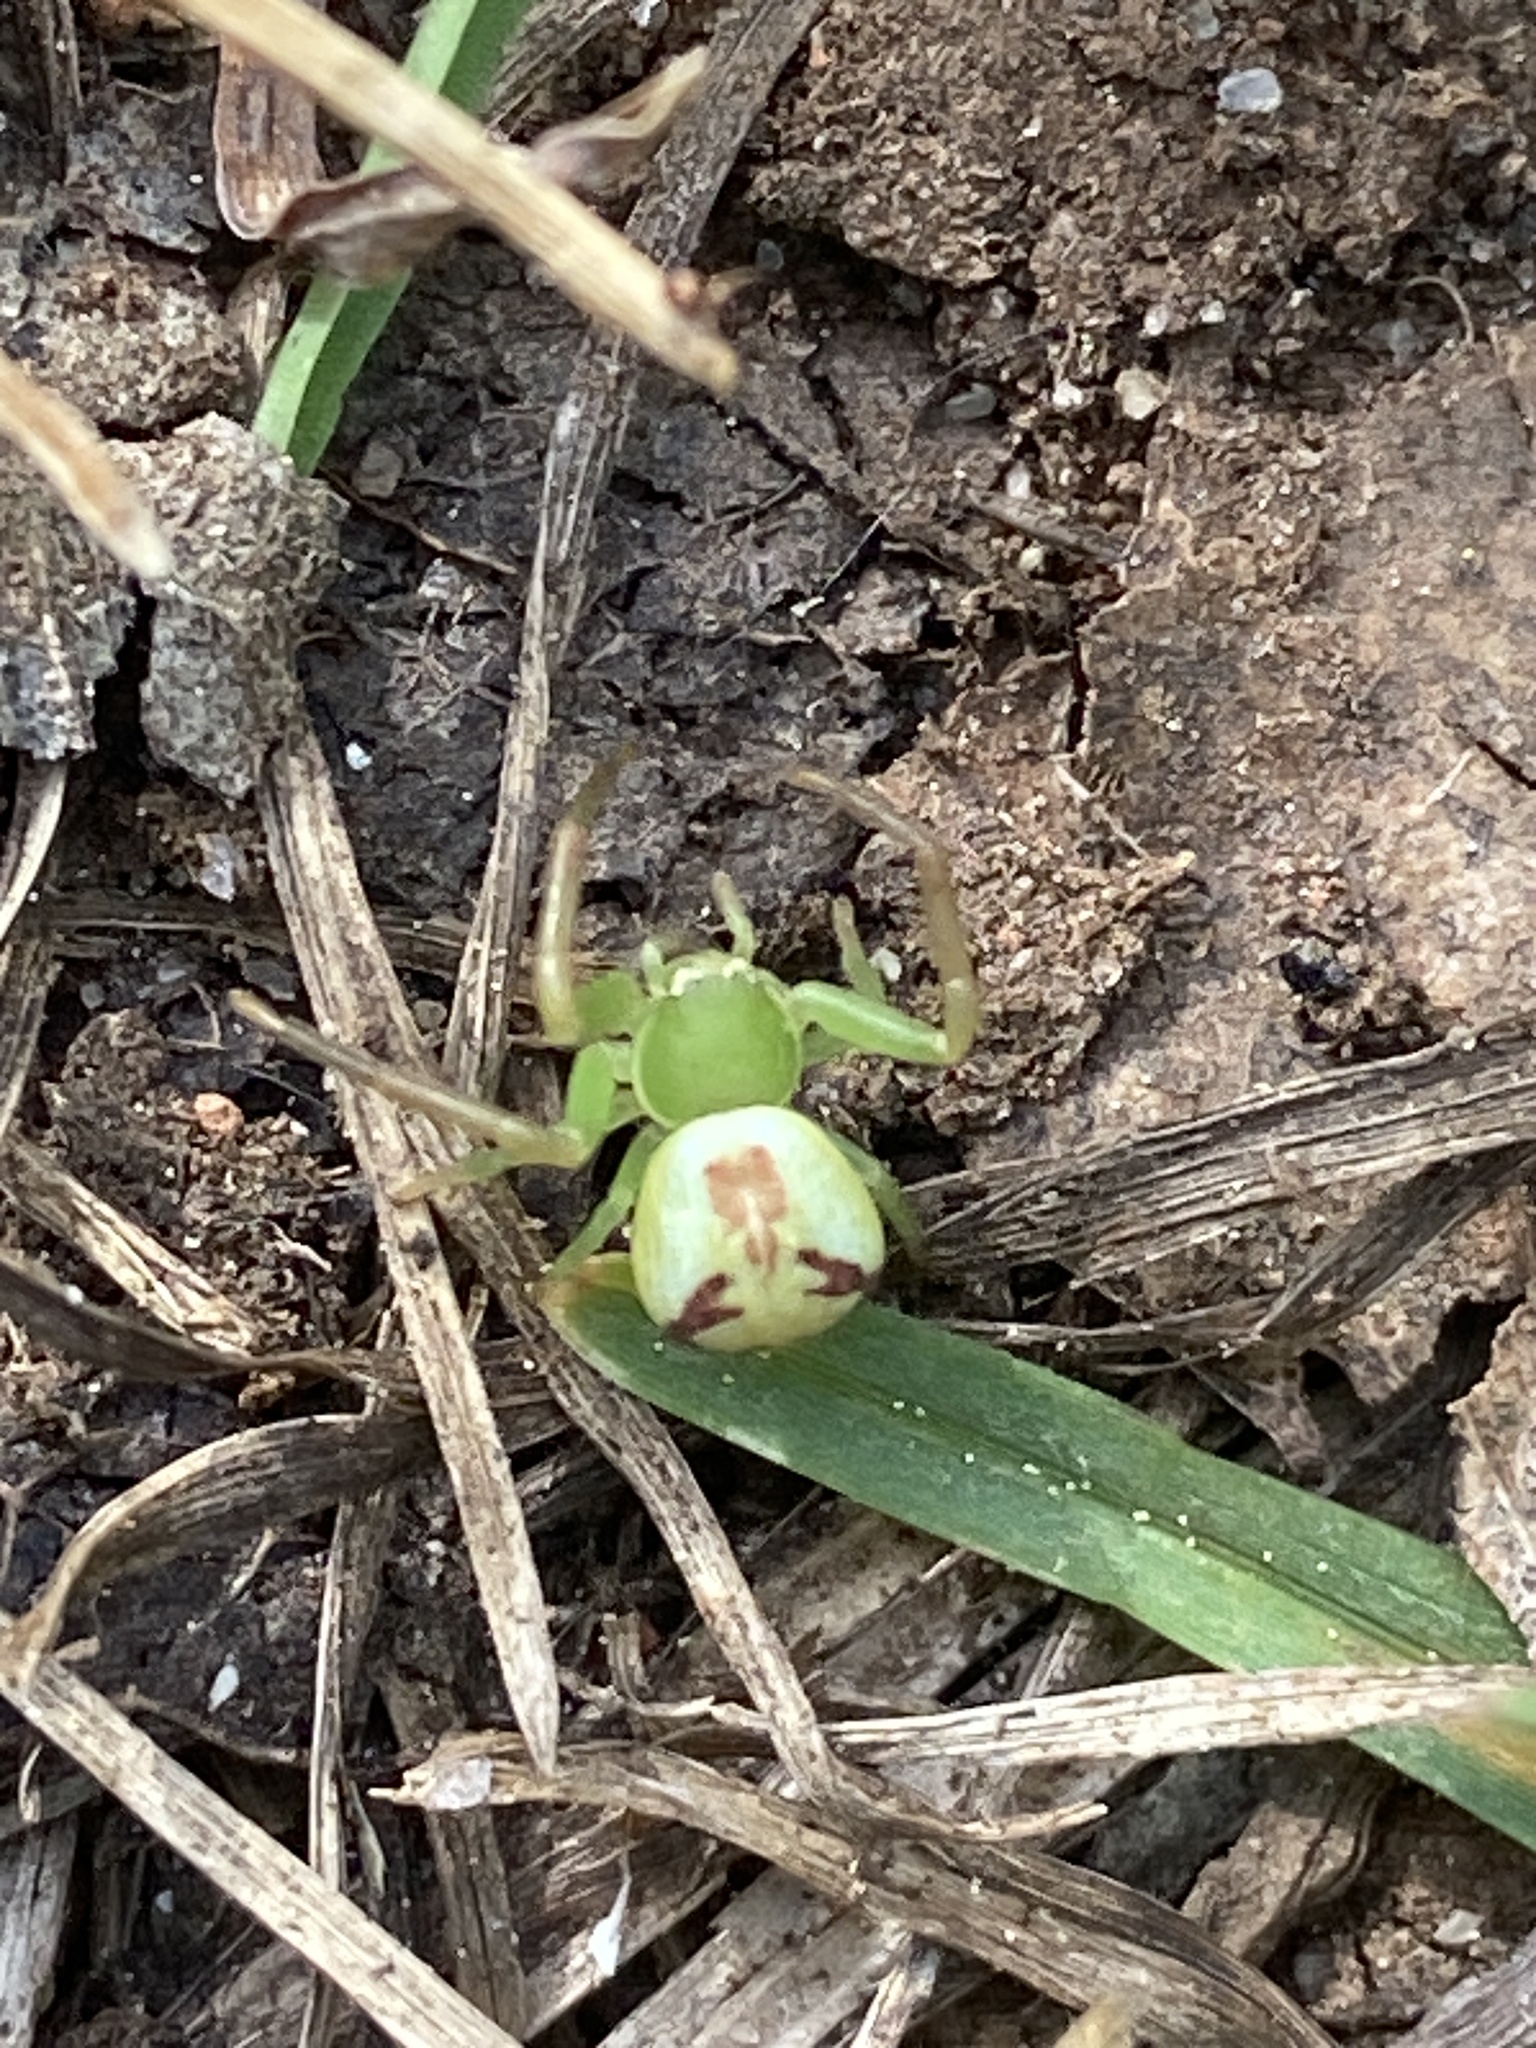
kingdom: Animalia
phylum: Arthropoda
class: Arachnida
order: Araneae
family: Thomisidae
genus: Ebrechtella
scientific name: Ebrechtella tricuspidata
